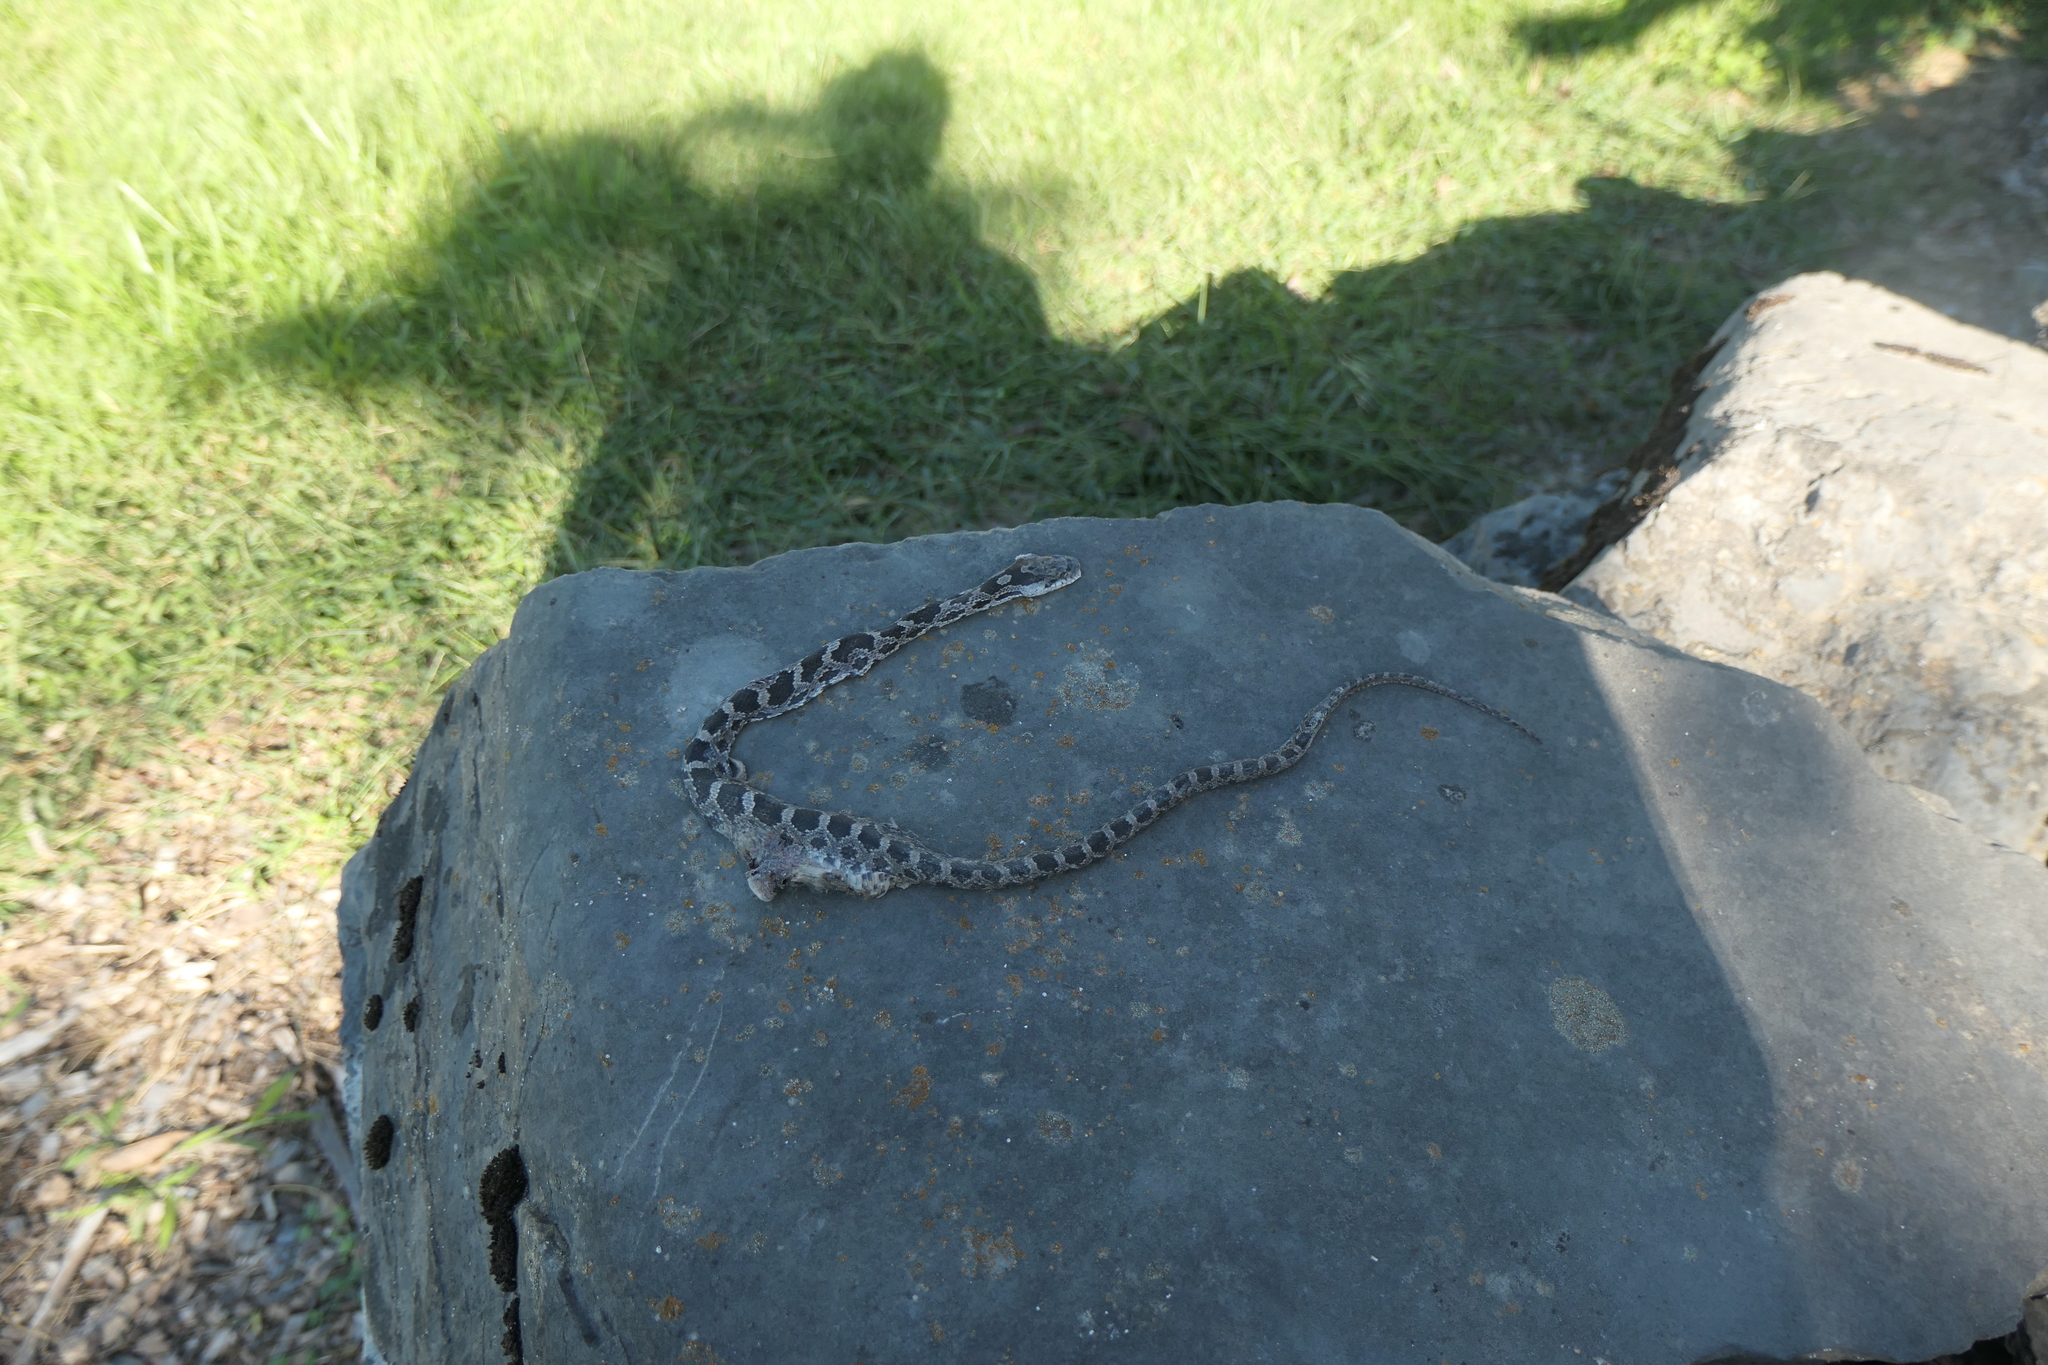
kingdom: Animalia
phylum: Chordata
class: Squamata
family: Colubridae
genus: Pantherophis
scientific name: Pantherophis alleghaniensis
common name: Eastern rat snake
